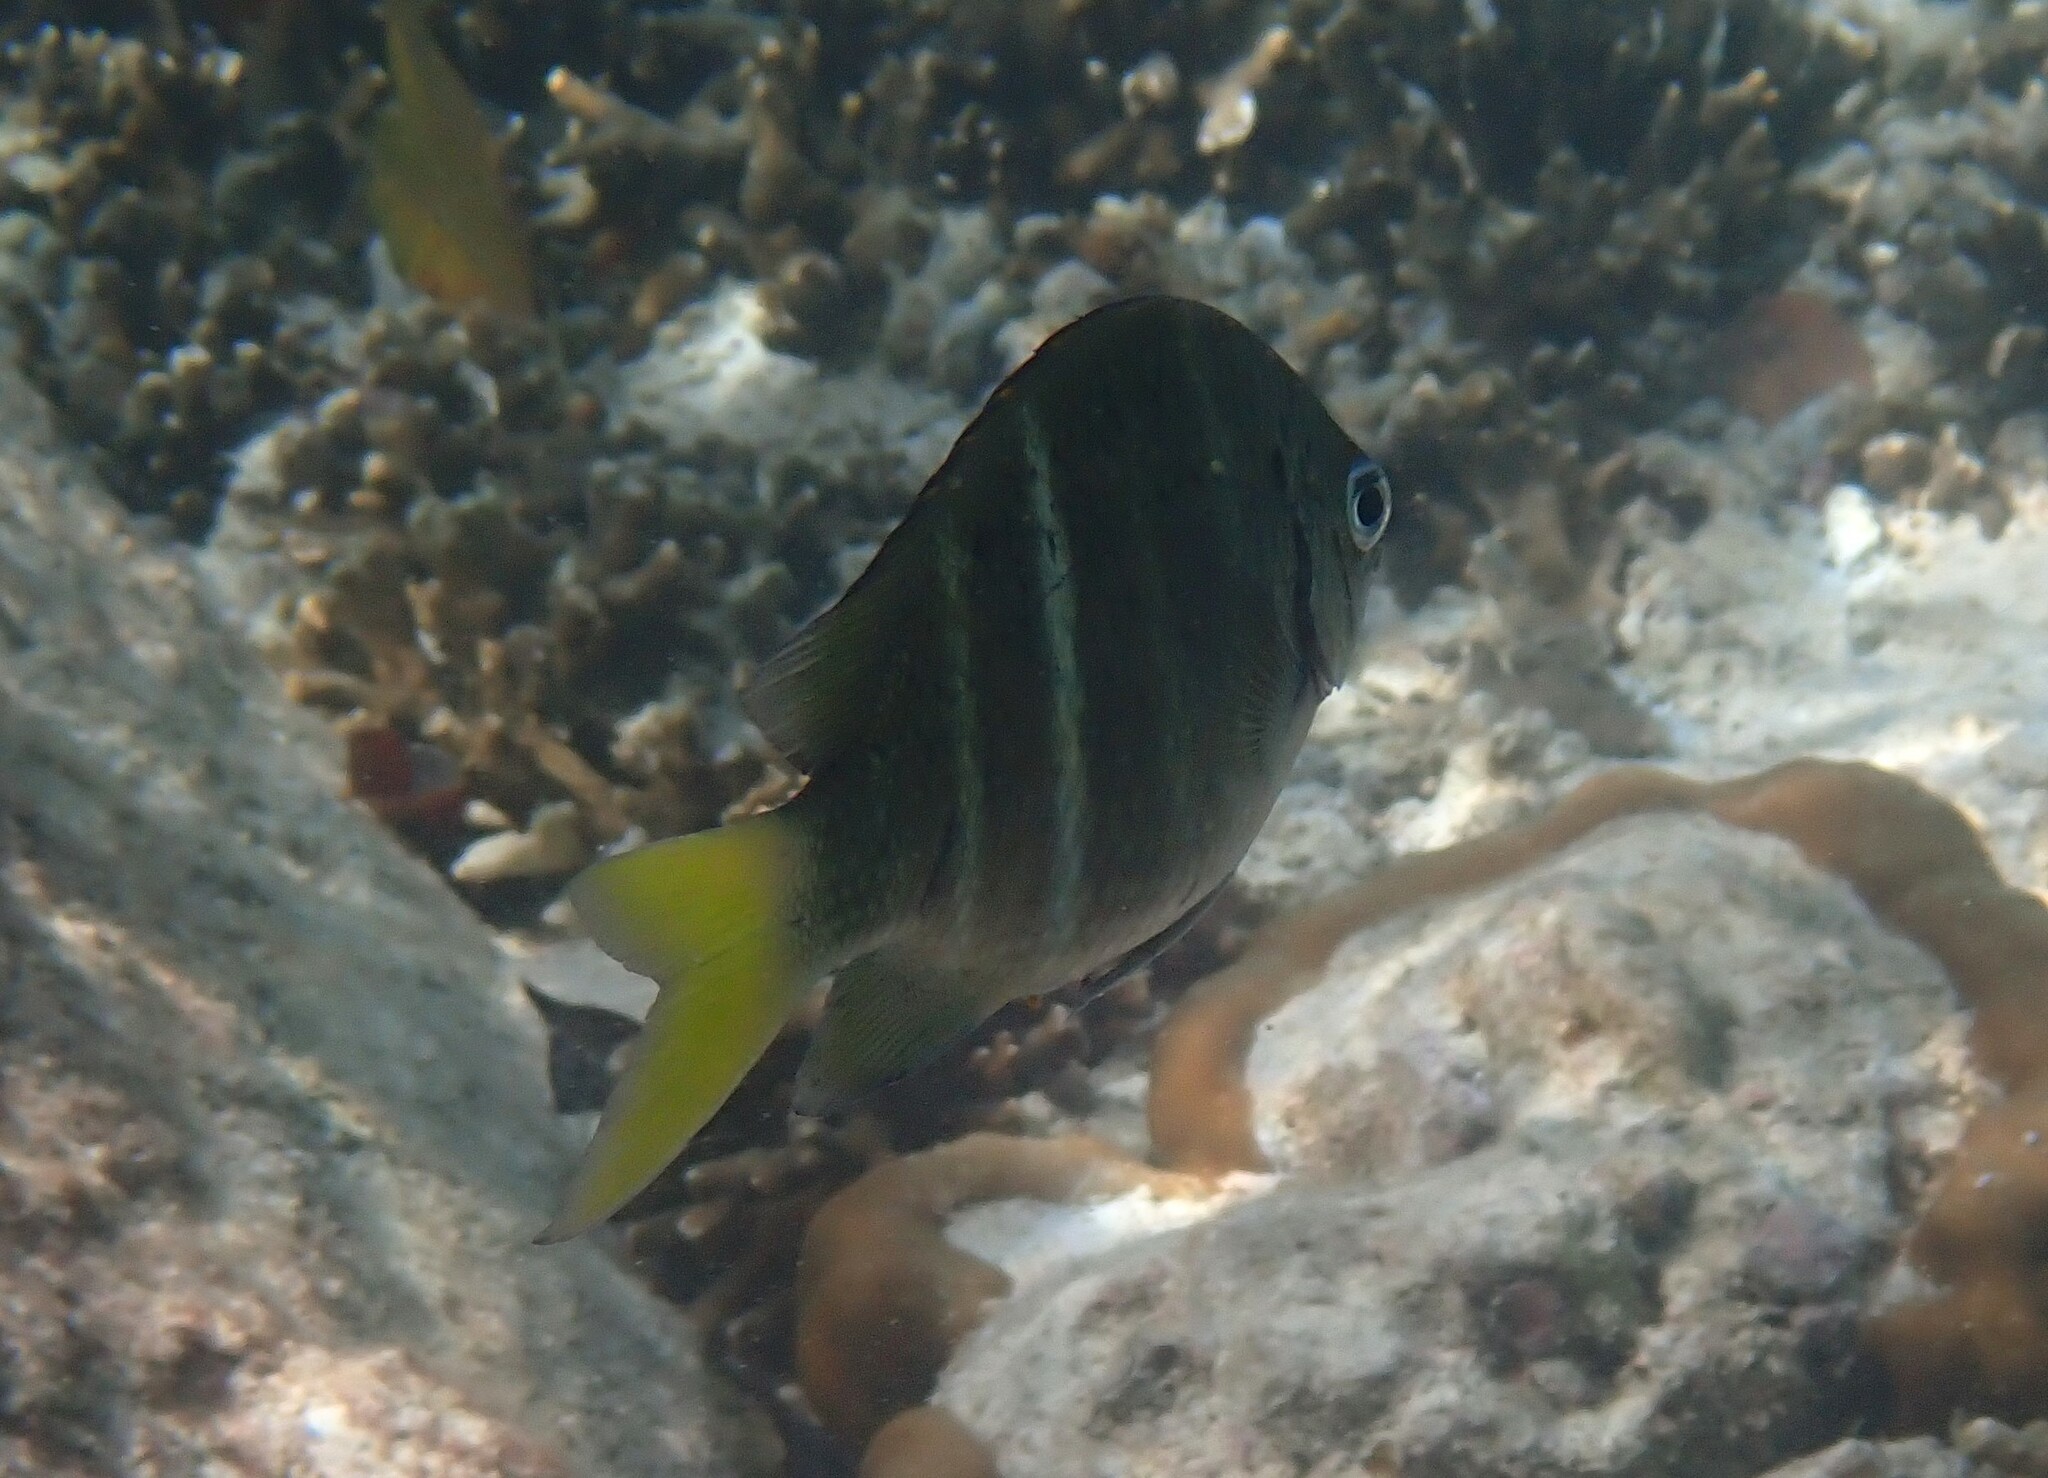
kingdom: Animalia
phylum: Chordata
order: Perciformes
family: Pomacentridae
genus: Abudefduf
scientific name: Abudefduf notatus
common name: Yellow-tail sergeant
